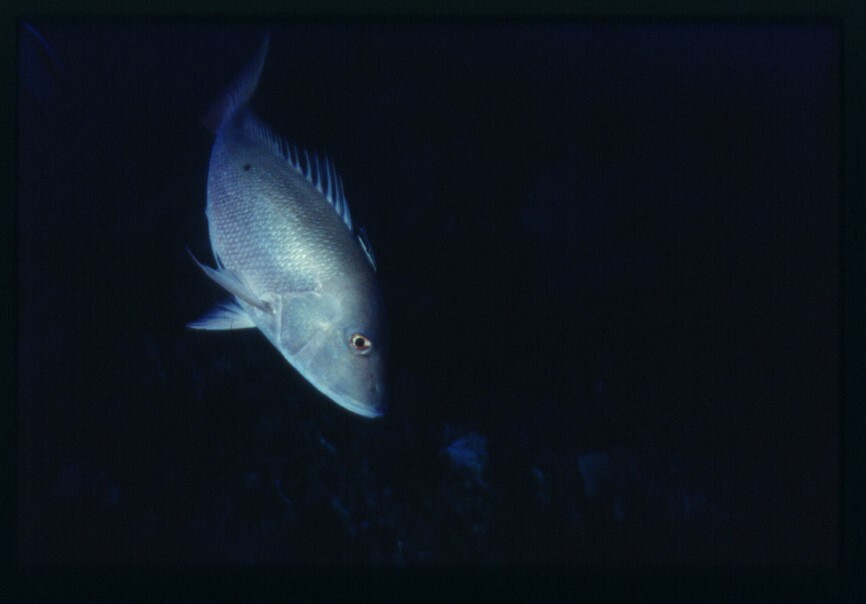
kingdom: Animalia
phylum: Chordata
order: Perciformes
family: Lutjanidae
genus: Lutjanus
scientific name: Lutjanus analis
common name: Mutton snapper
